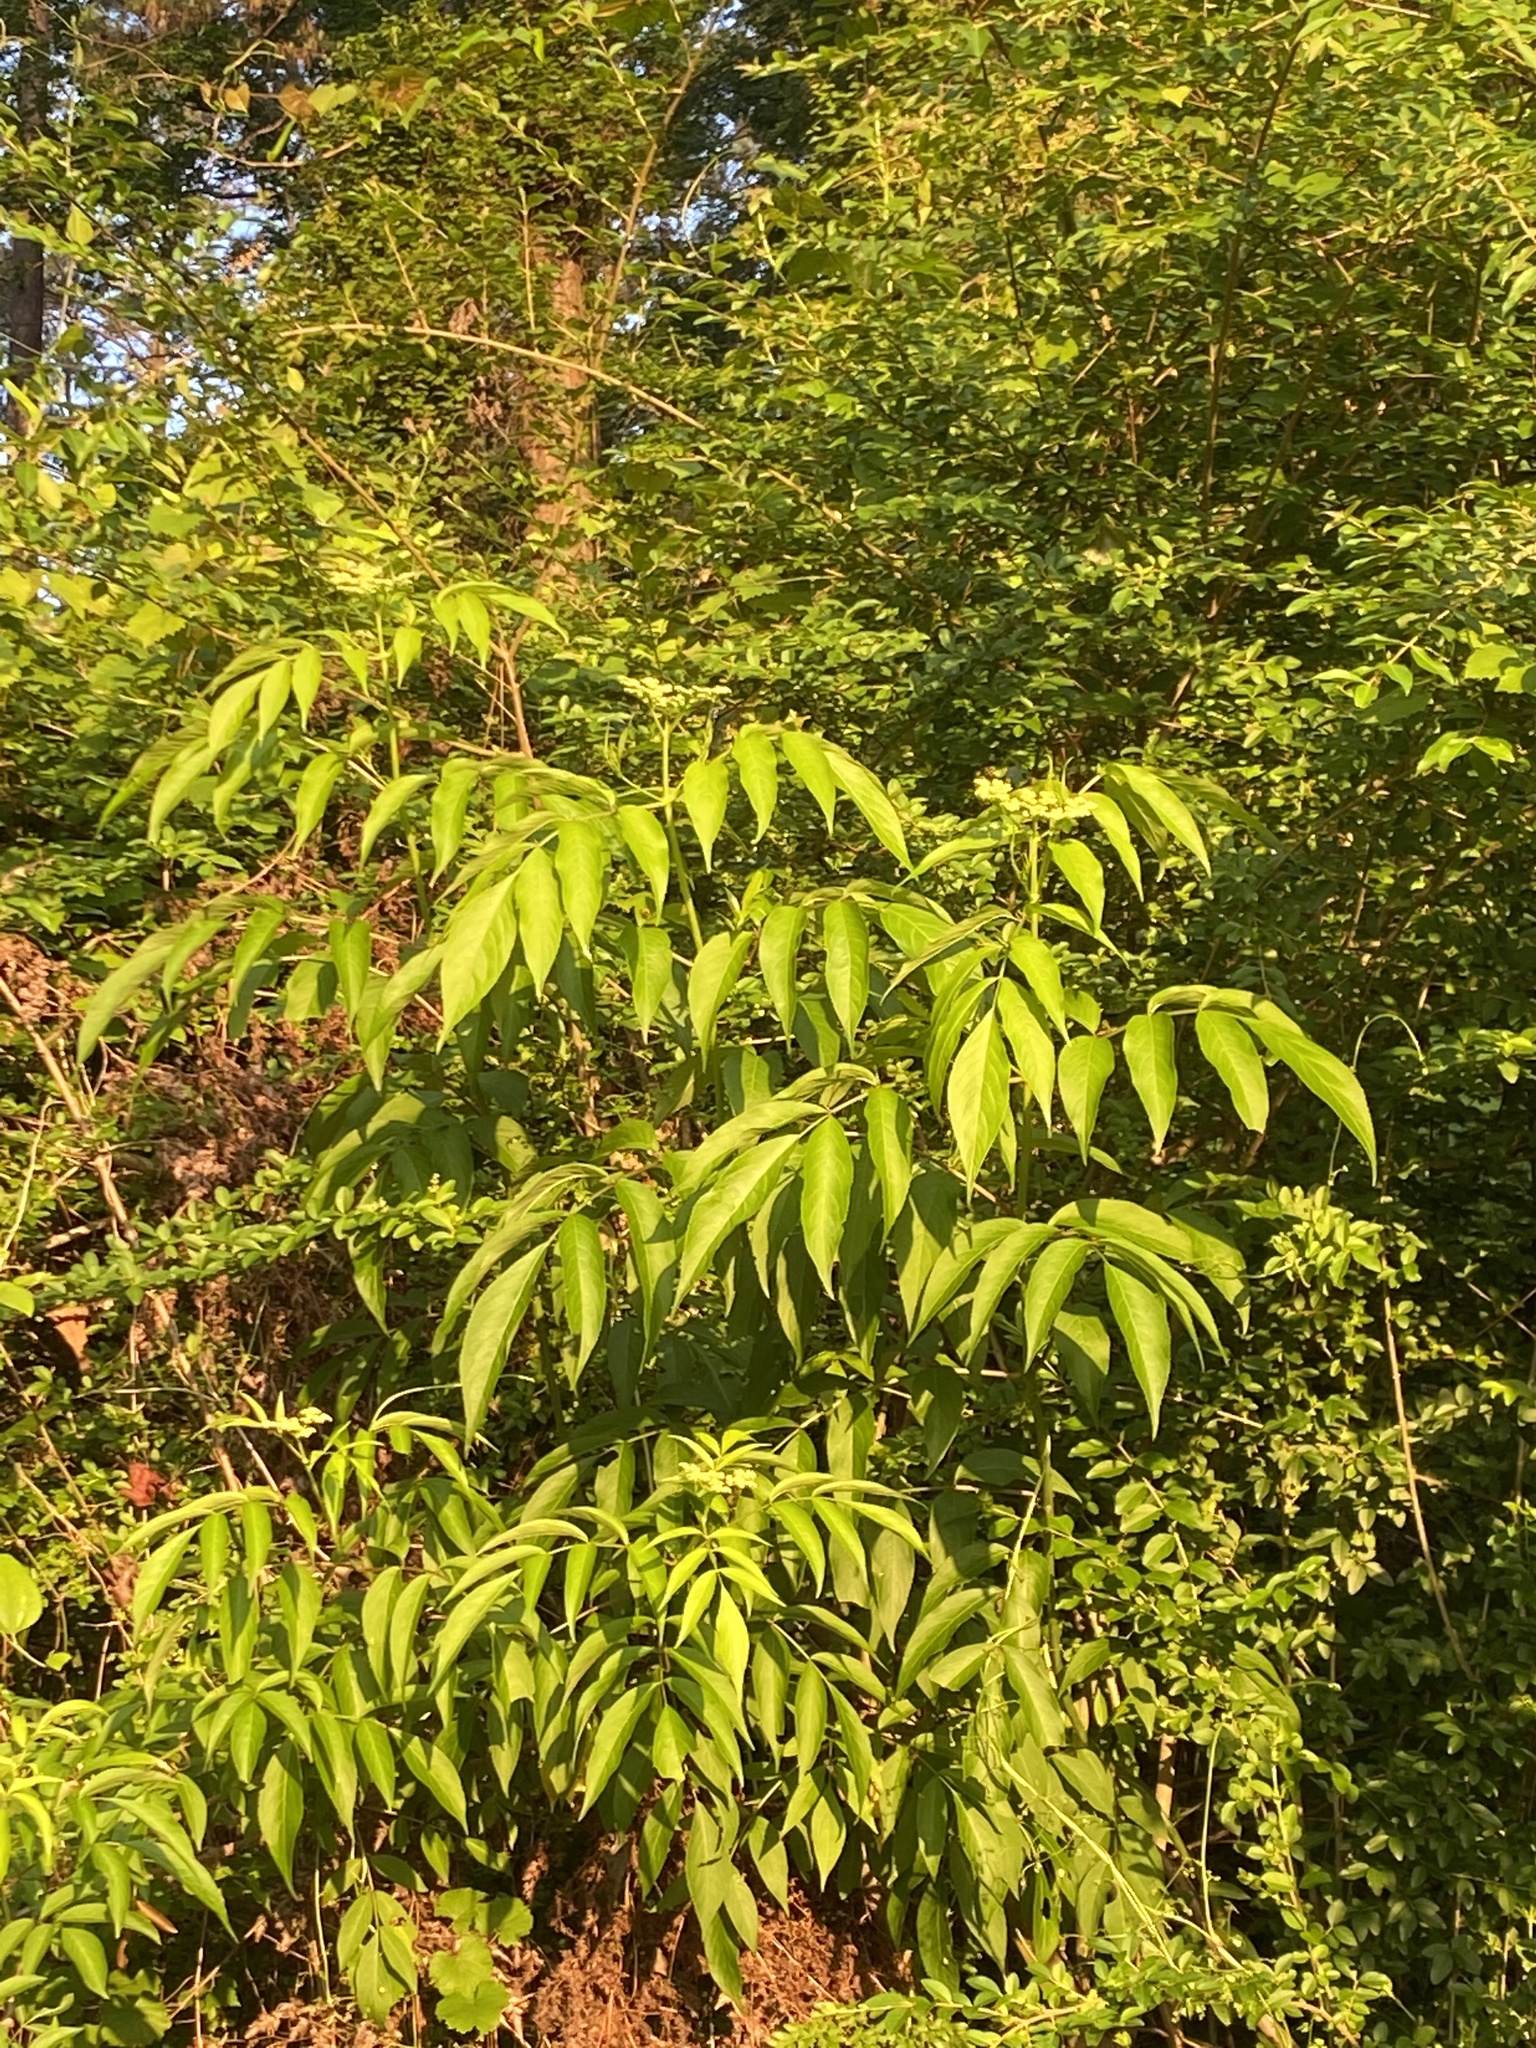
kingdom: Plantae
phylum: Tracheophyta
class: Magnoliopsida
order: Dipsacales
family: Viburnaceae
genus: Sambucus
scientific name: Sambucus canadensis
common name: American elder
